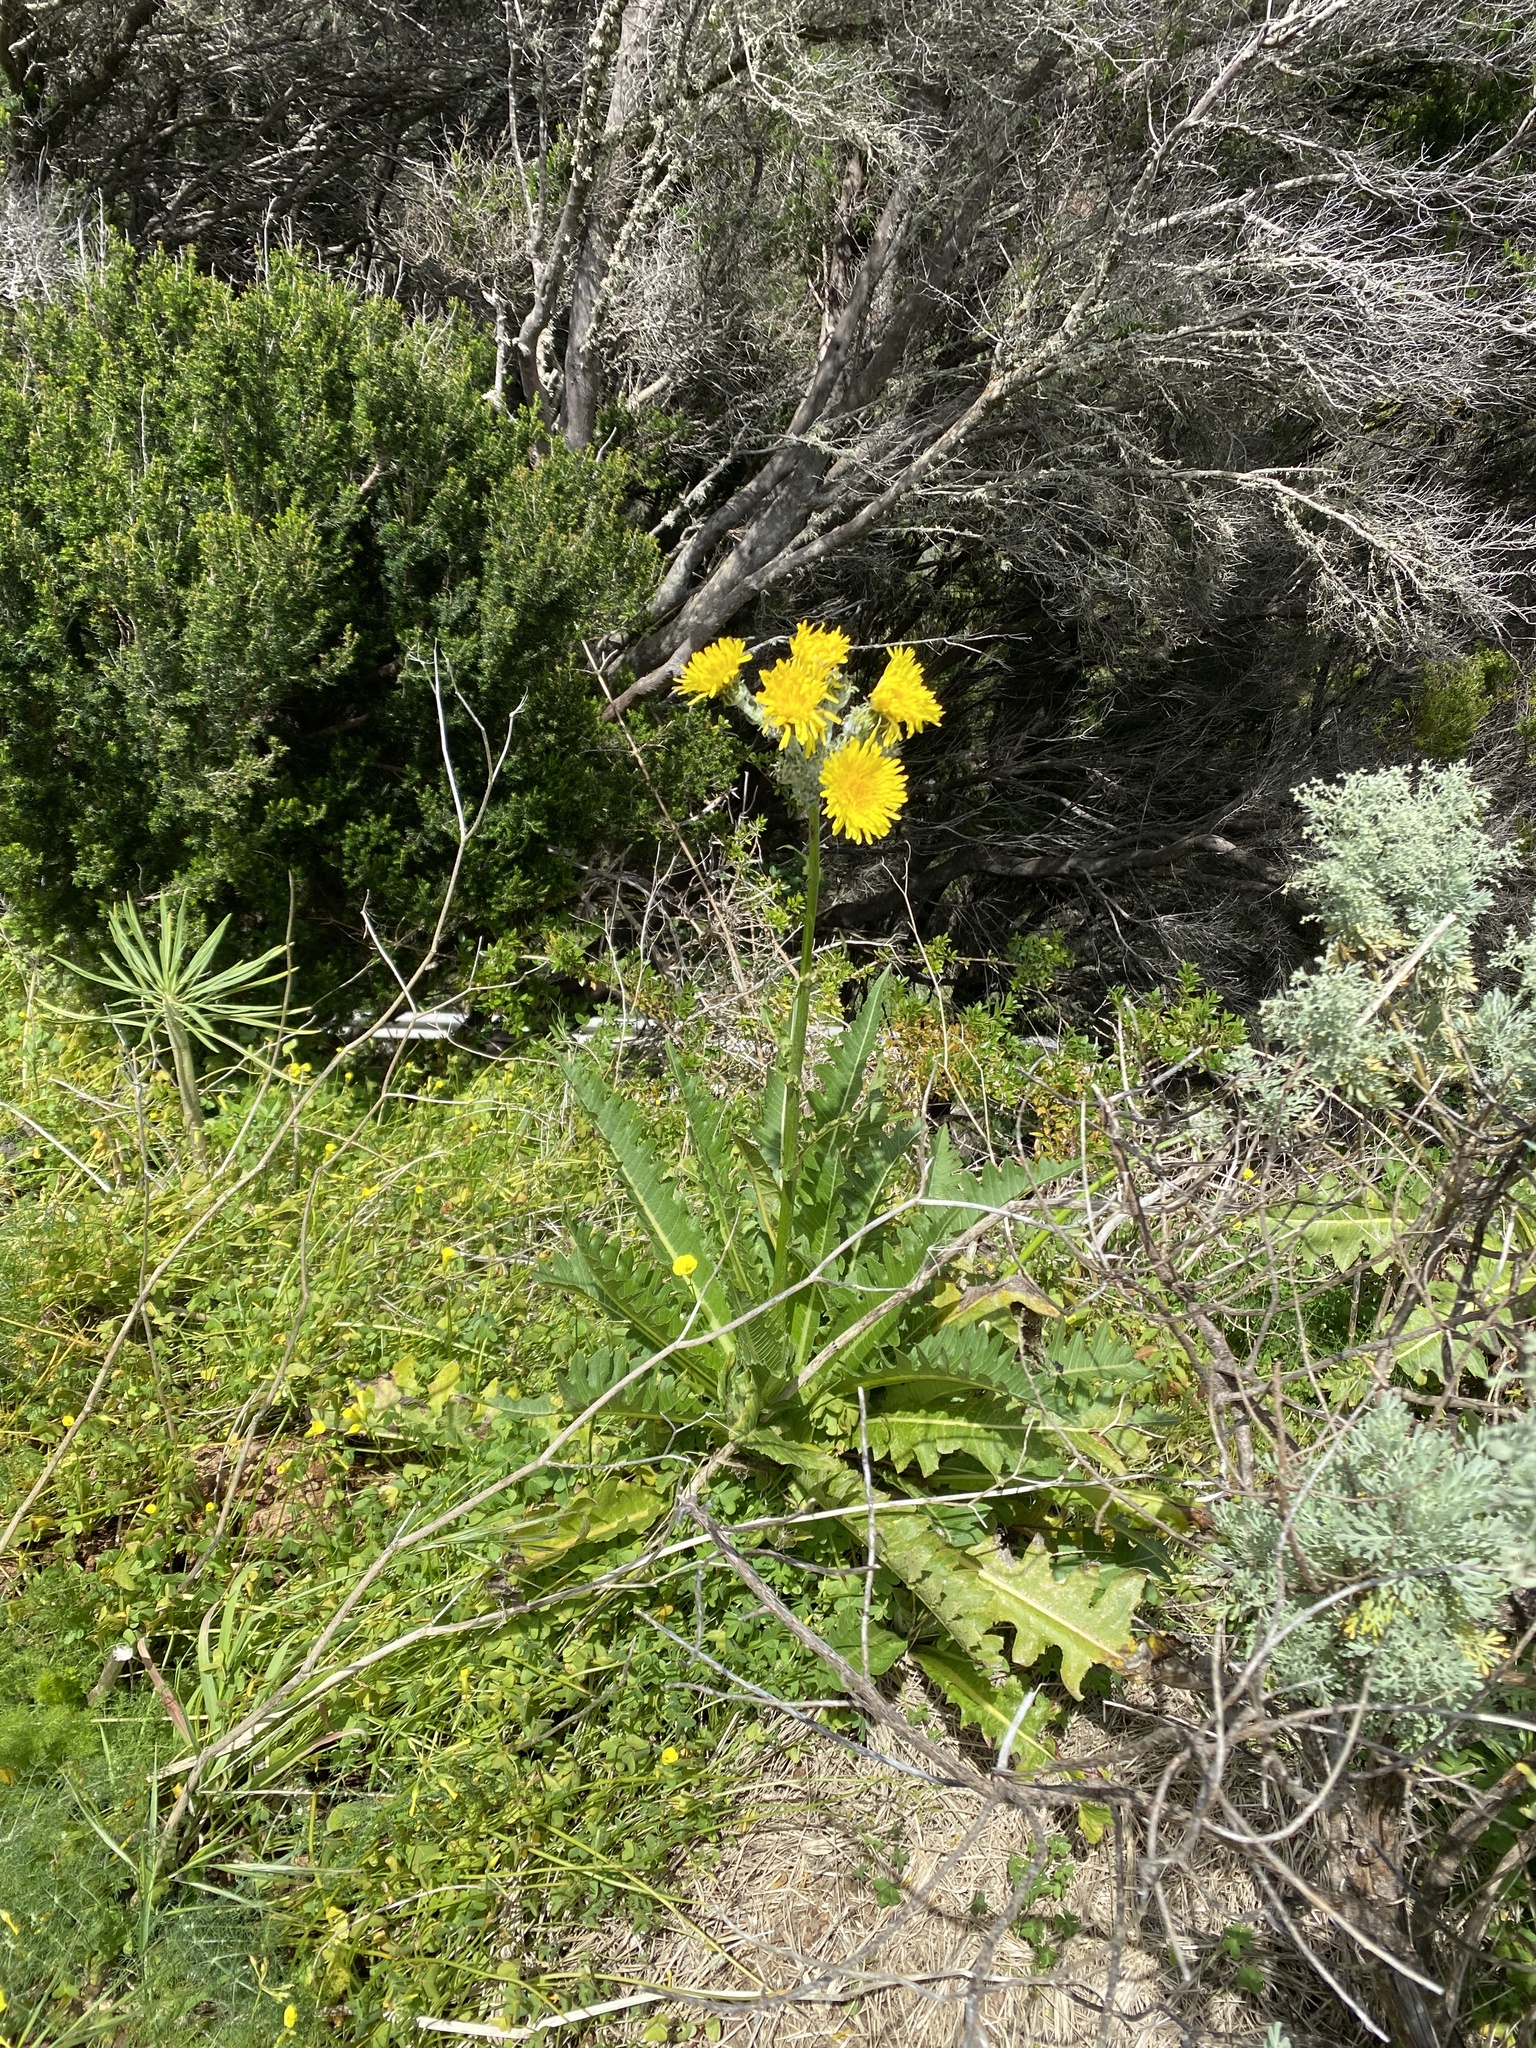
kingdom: Plantae
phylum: Tracheophyta
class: Magnoliopsida
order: Asterales
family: Asteraceae
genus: Sonchus
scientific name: Sonchus acaulis
